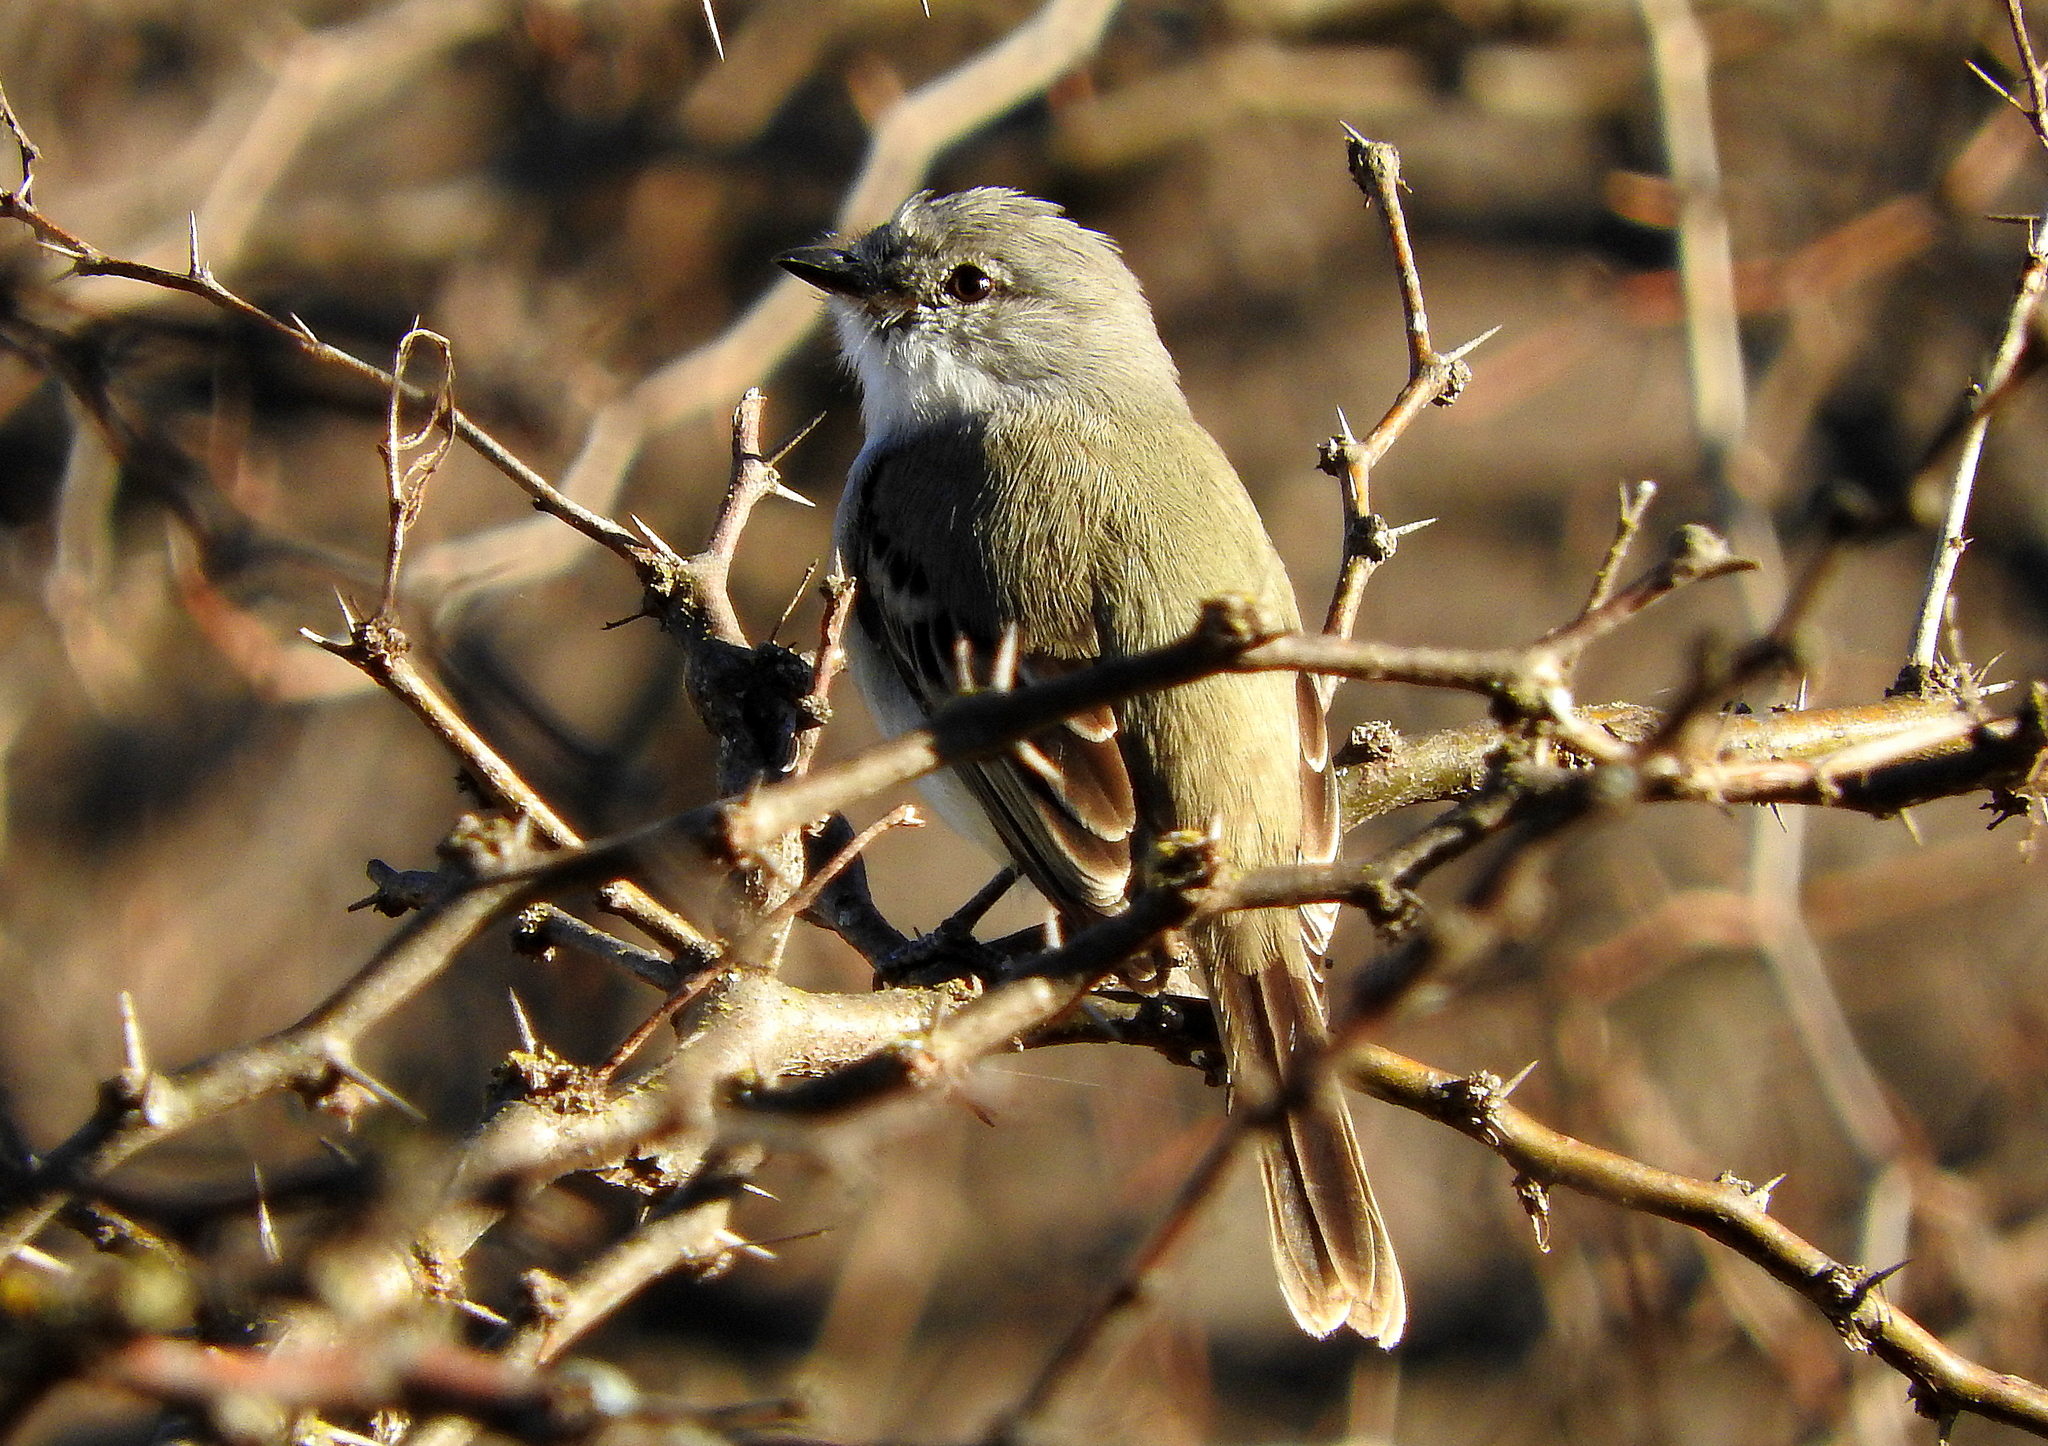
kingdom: Animalia
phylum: Chordata
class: Aves
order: Passeriformes
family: Tyrannidae
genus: Suiriri
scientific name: Suiriri suiriri
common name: Suiriri flycatcher
